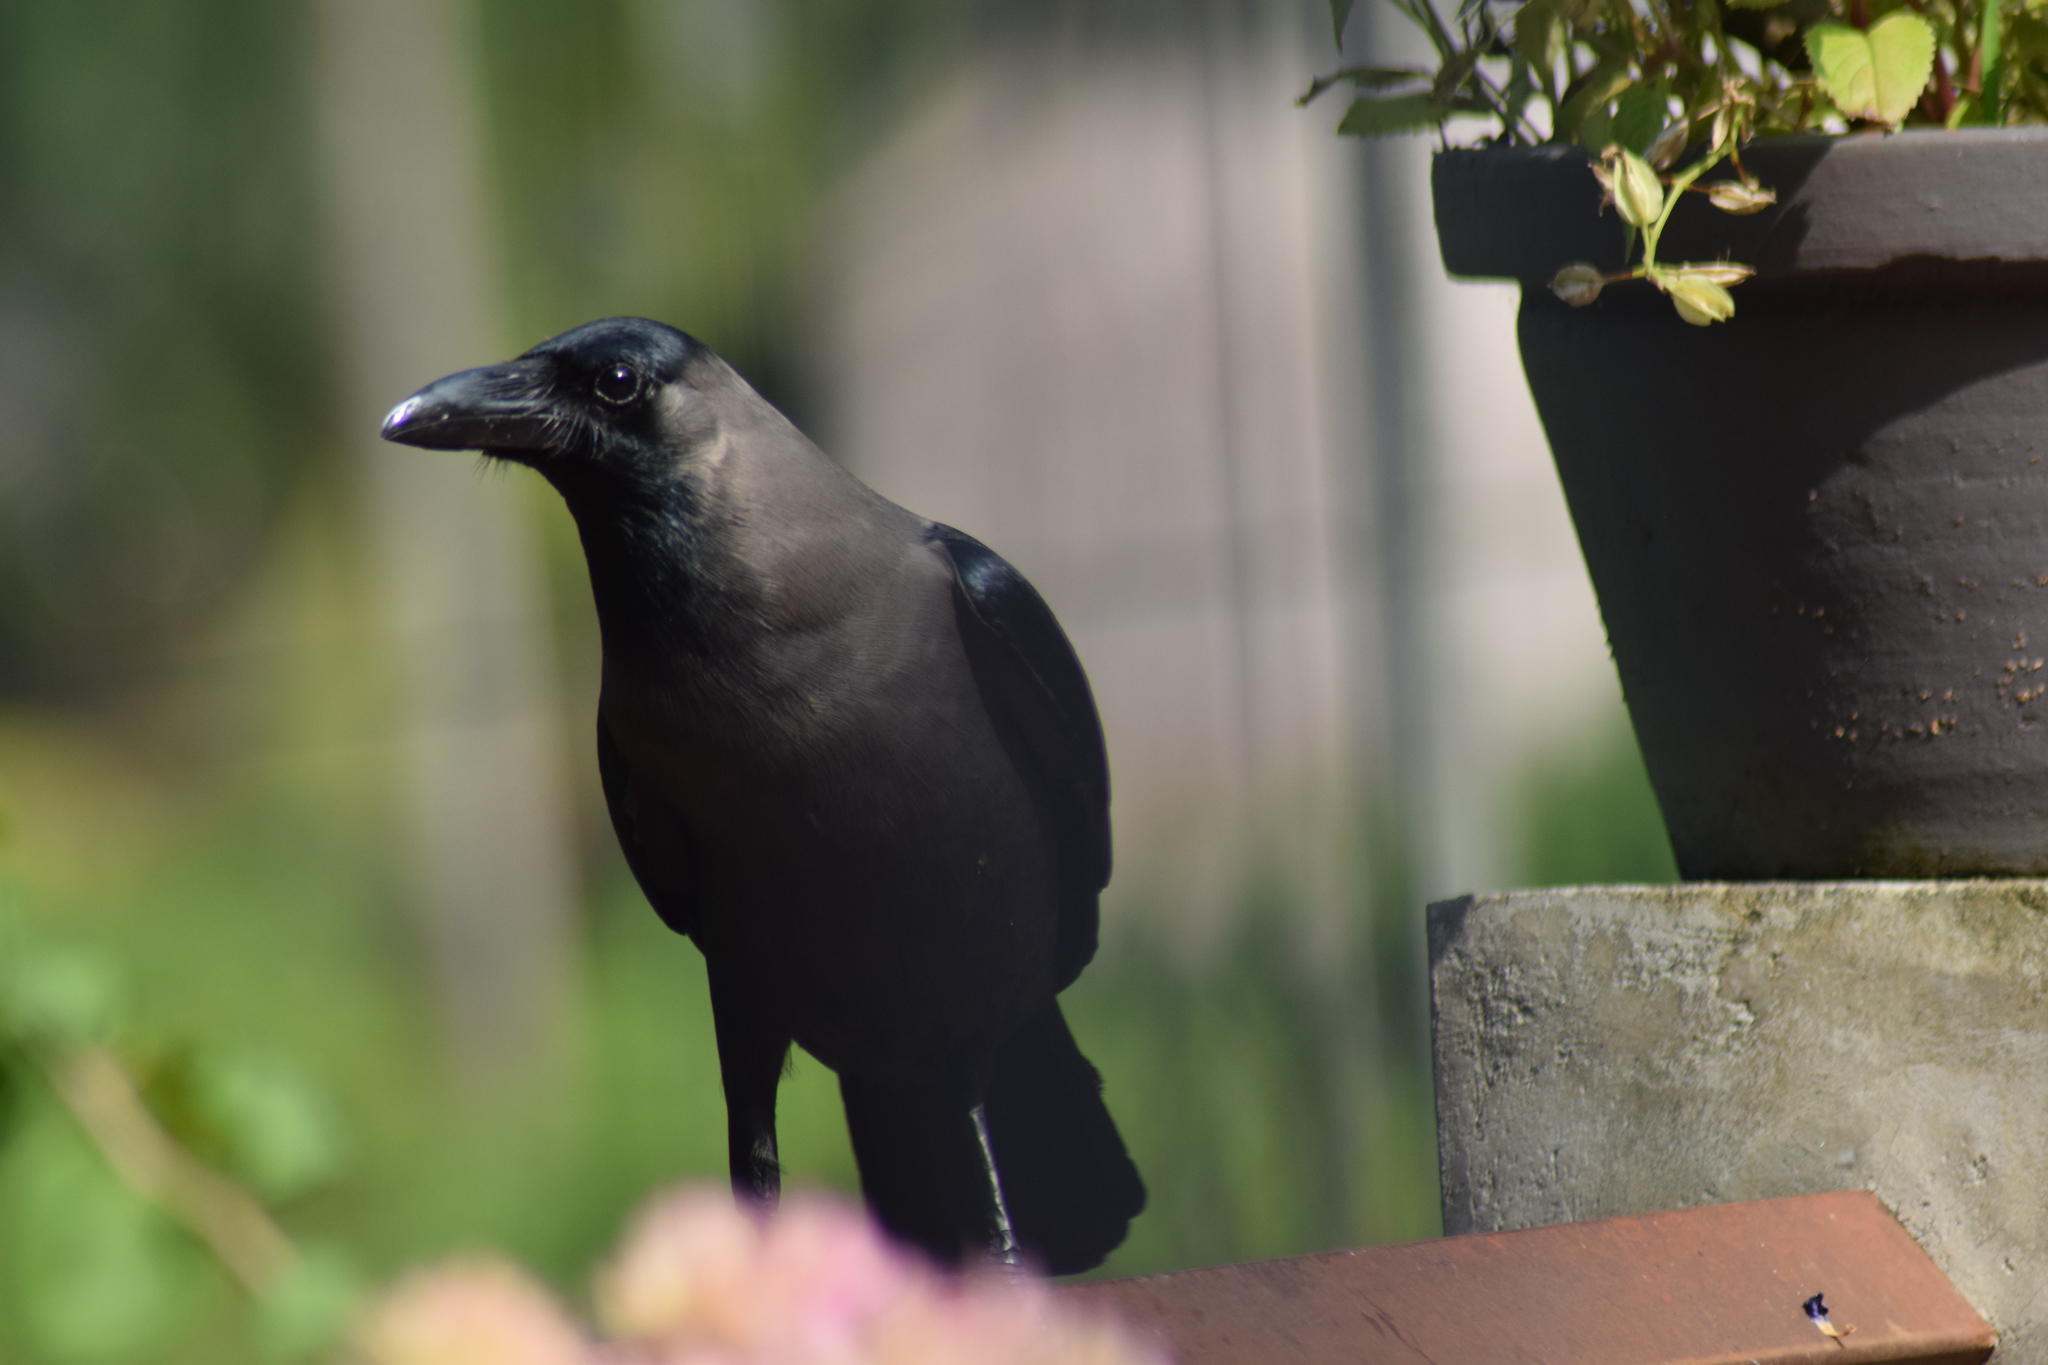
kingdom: Animalia
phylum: Chordata
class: Aves
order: Passeriformes
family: Corvidae
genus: Corvus
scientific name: Corvus splendens
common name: House crow
